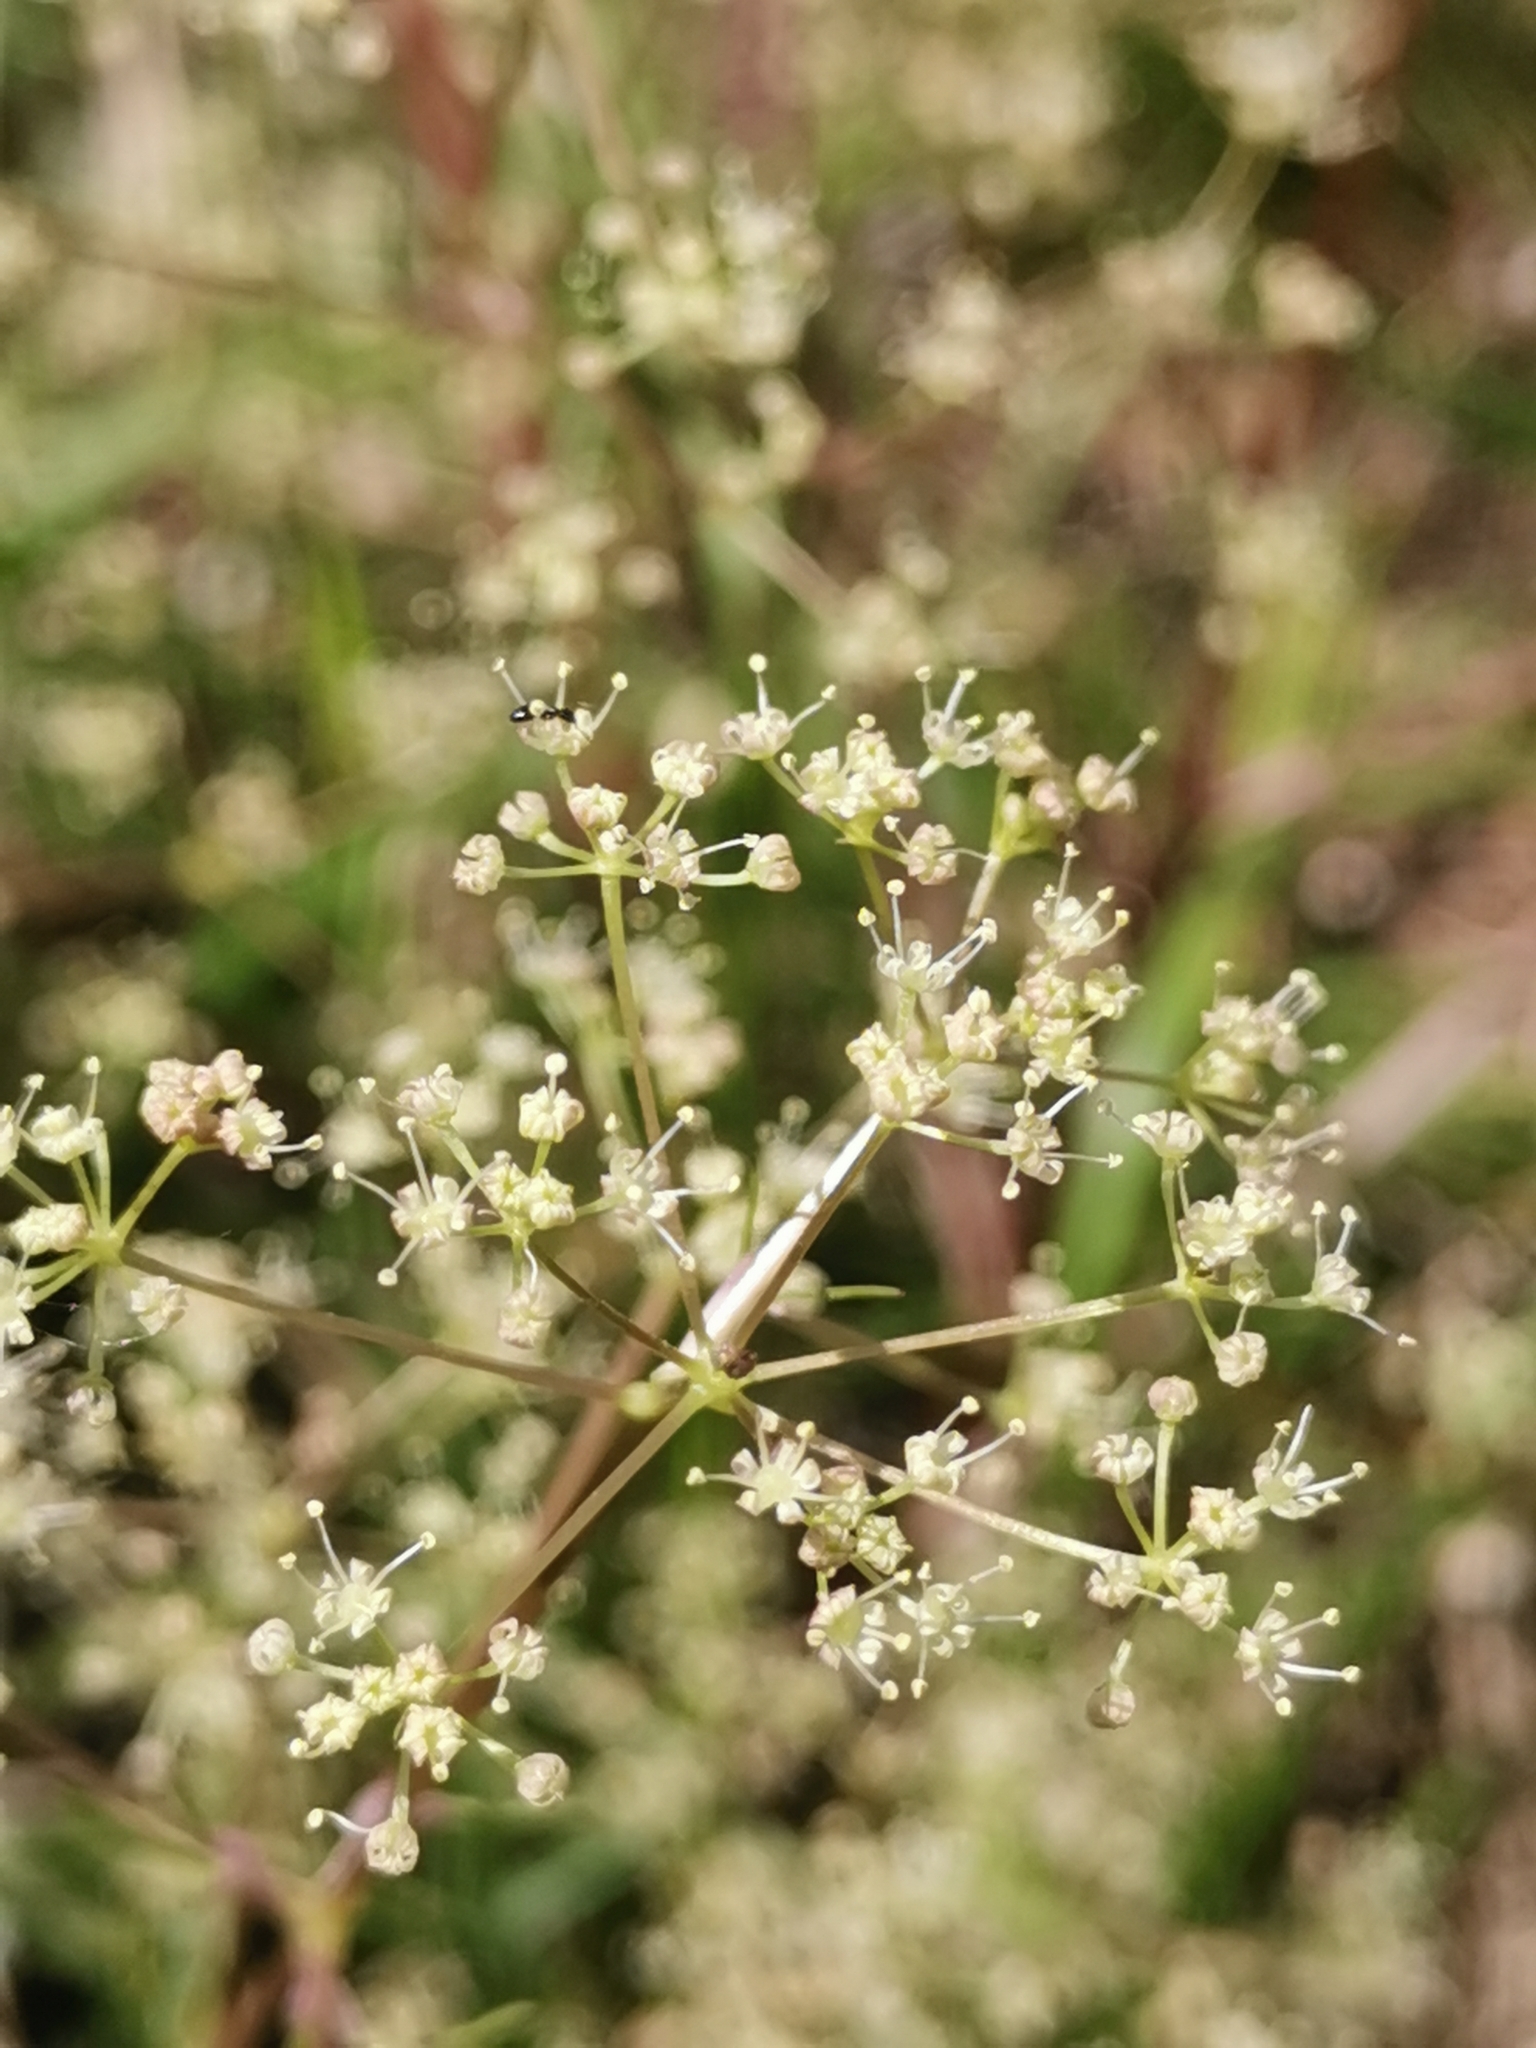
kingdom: Plantae
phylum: Tracheophyta
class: Magnoliopsida
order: Apiales
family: Apiaceae
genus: Trinia
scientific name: Trinia glauca
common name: Honewort
